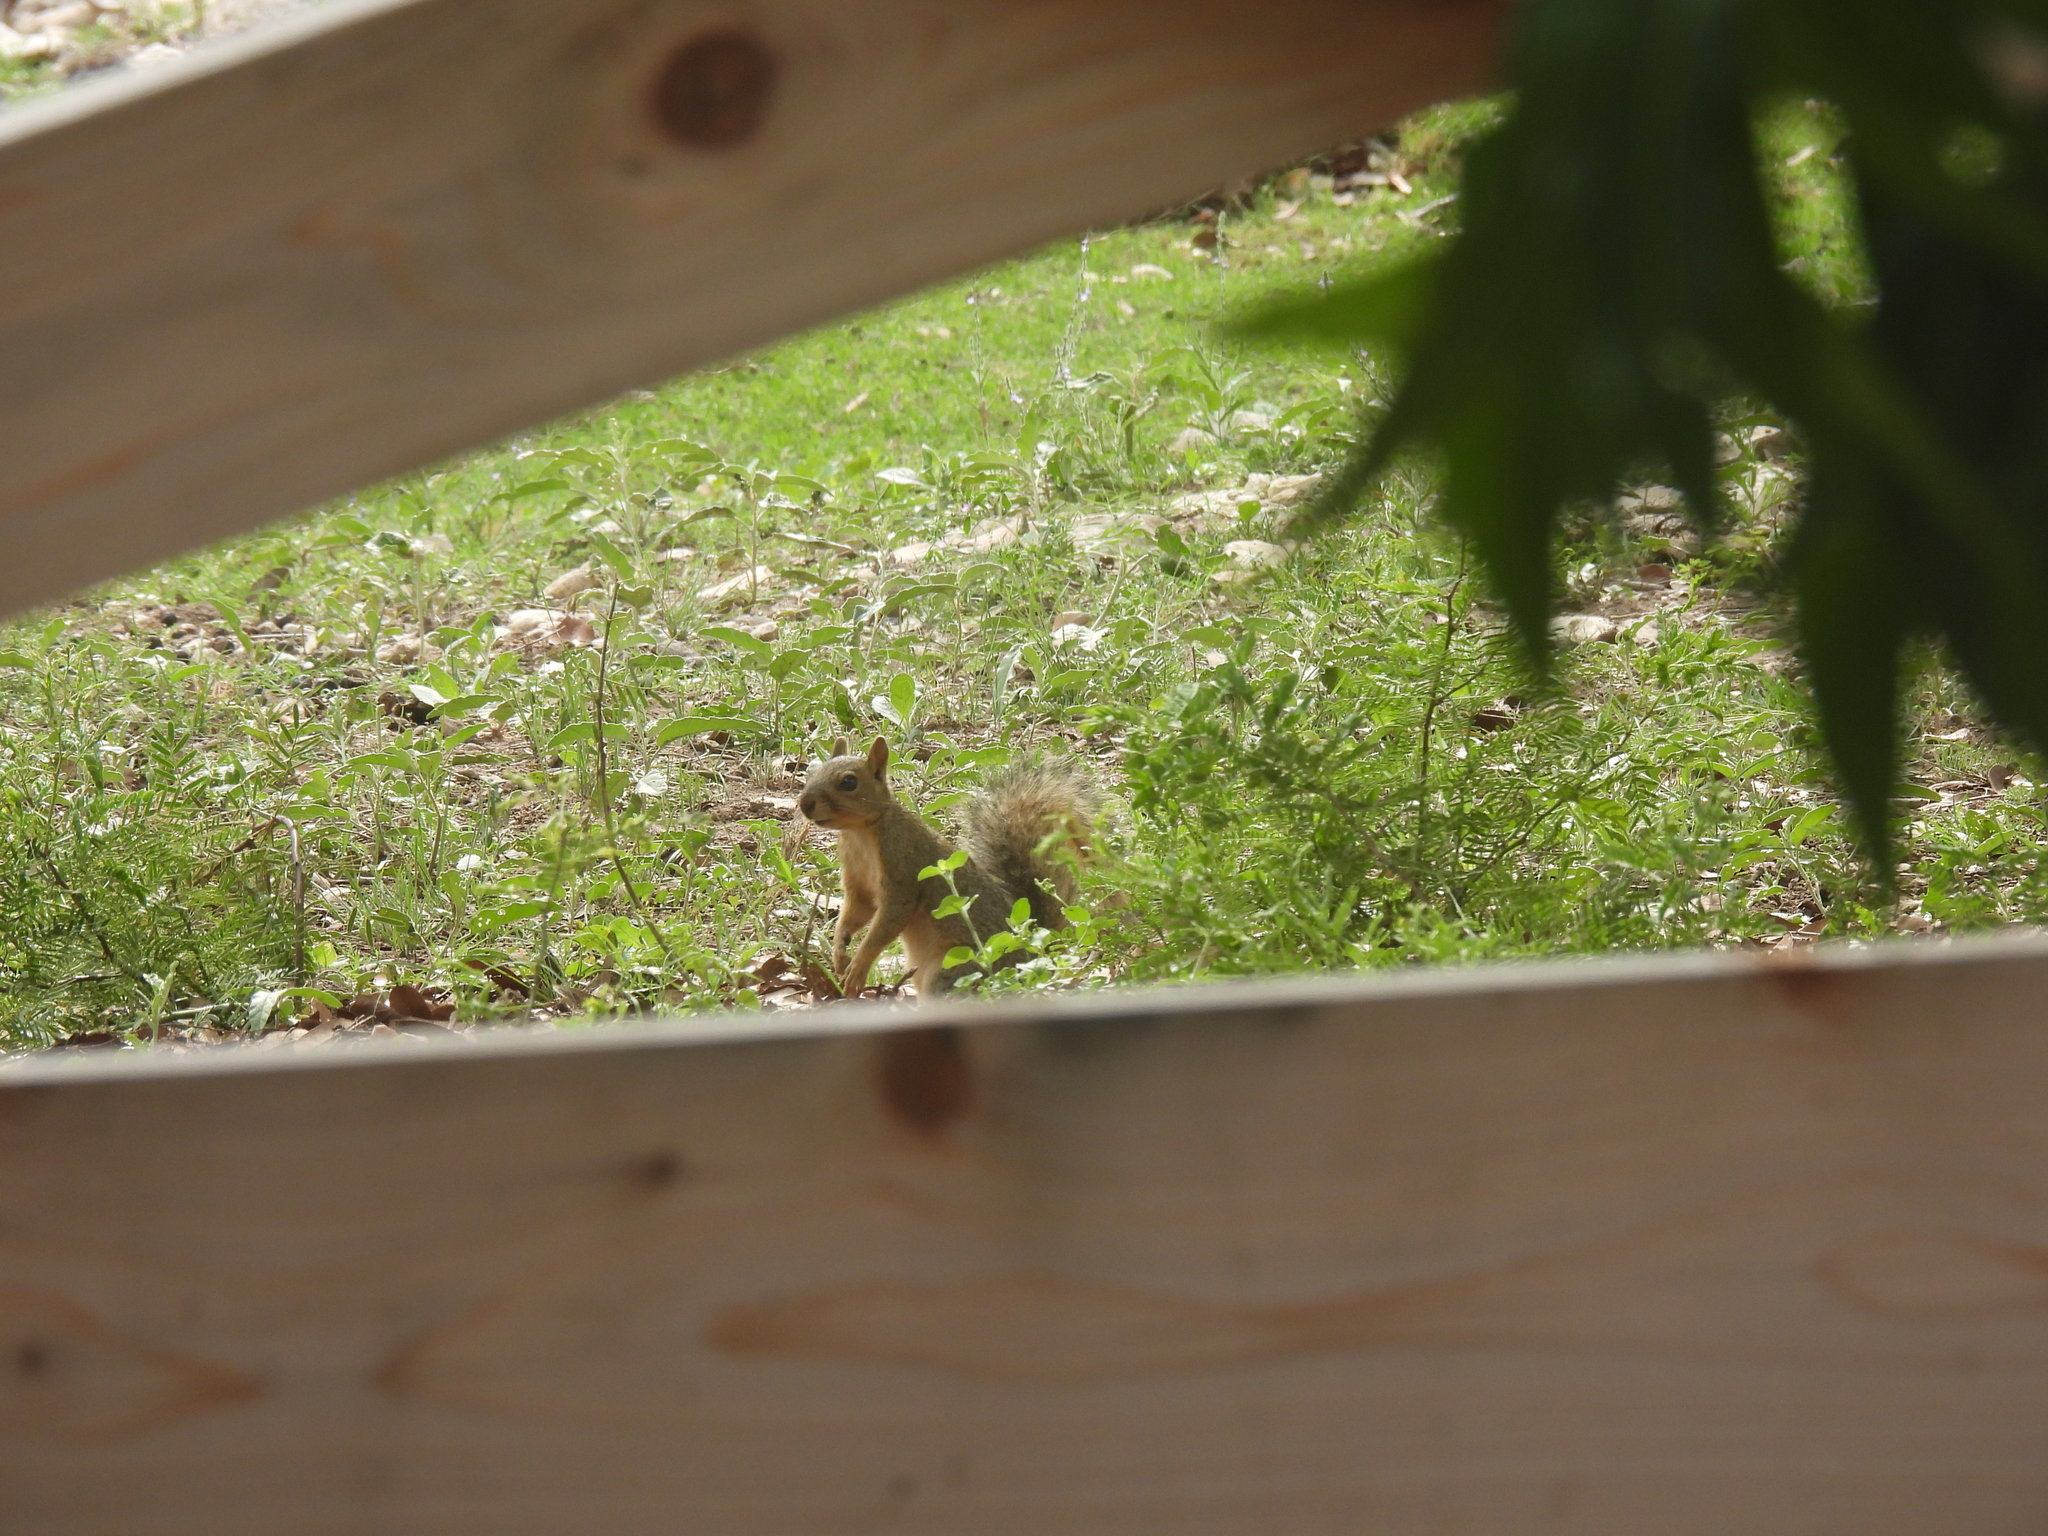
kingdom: Animalia
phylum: Chordata
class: Mammalia
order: Rodentia
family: Sciuridae
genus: Sciurus
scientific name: Sciurus niger
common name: Fox squirrel
